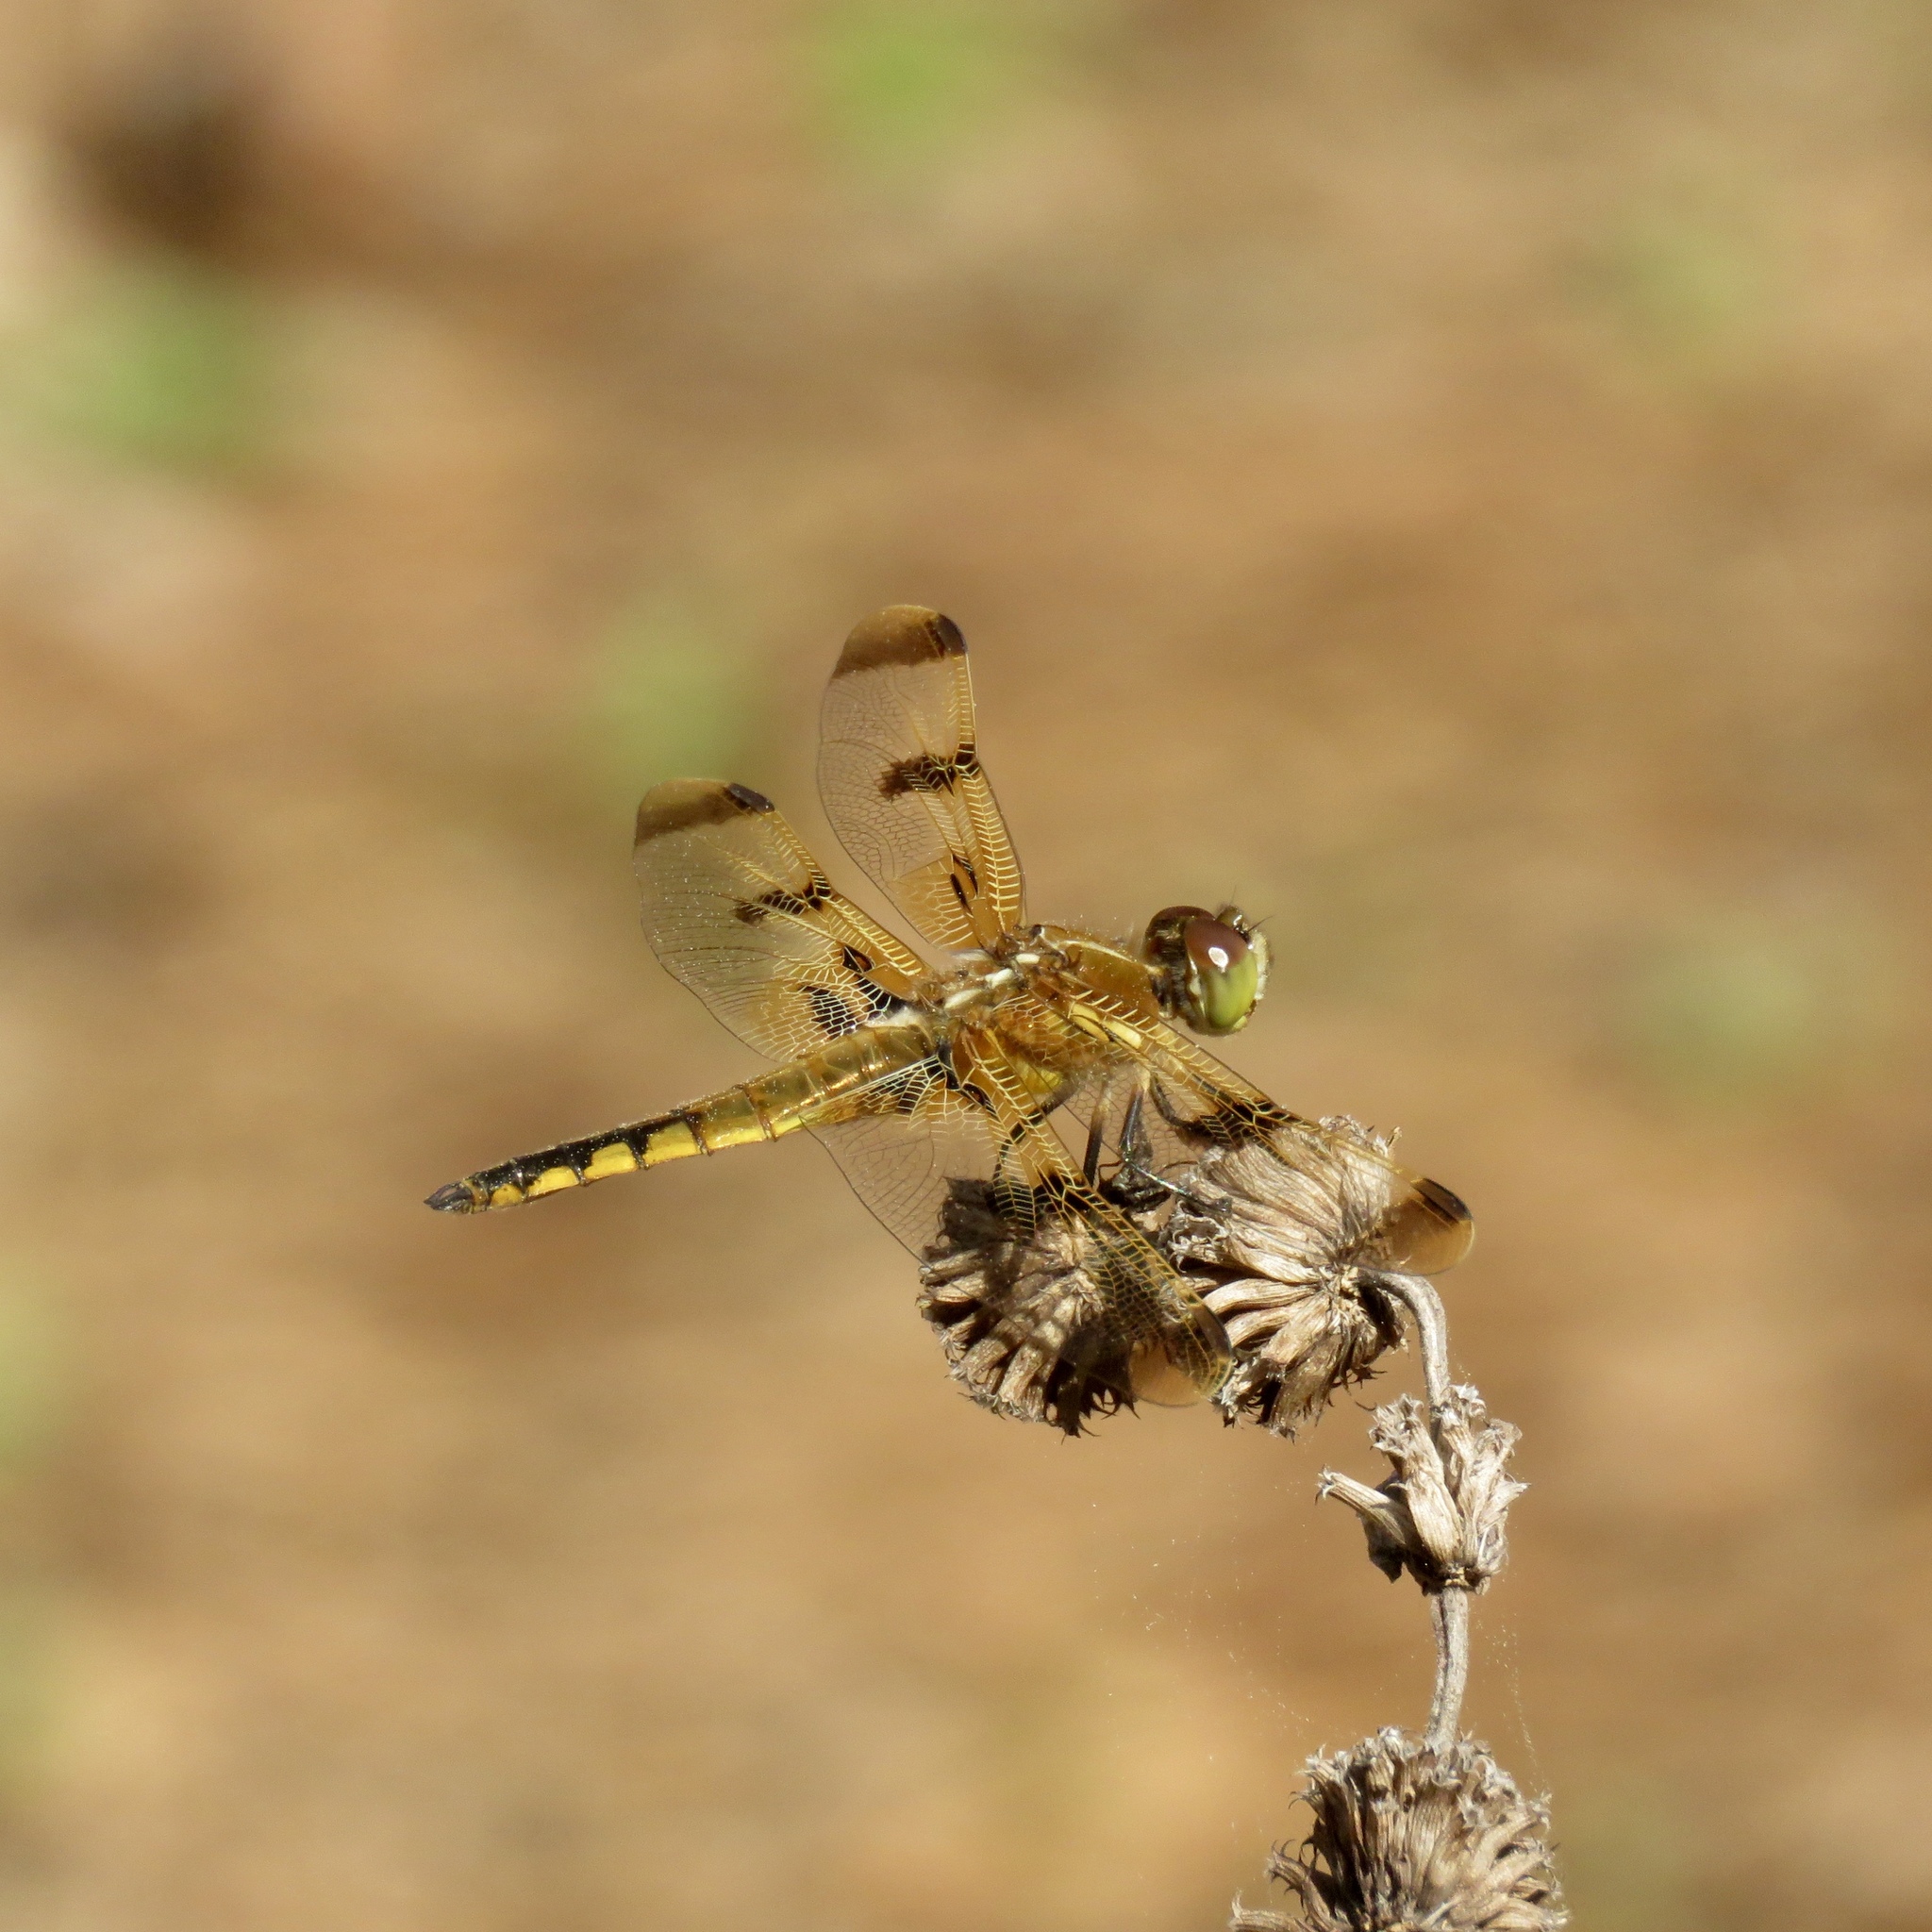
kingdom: Animalia
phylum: Arthropoda
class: Insecta
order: Odonata
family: Libellulidae
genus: Libellula
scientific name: Libellula semifasciata
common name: Painted skimmer
